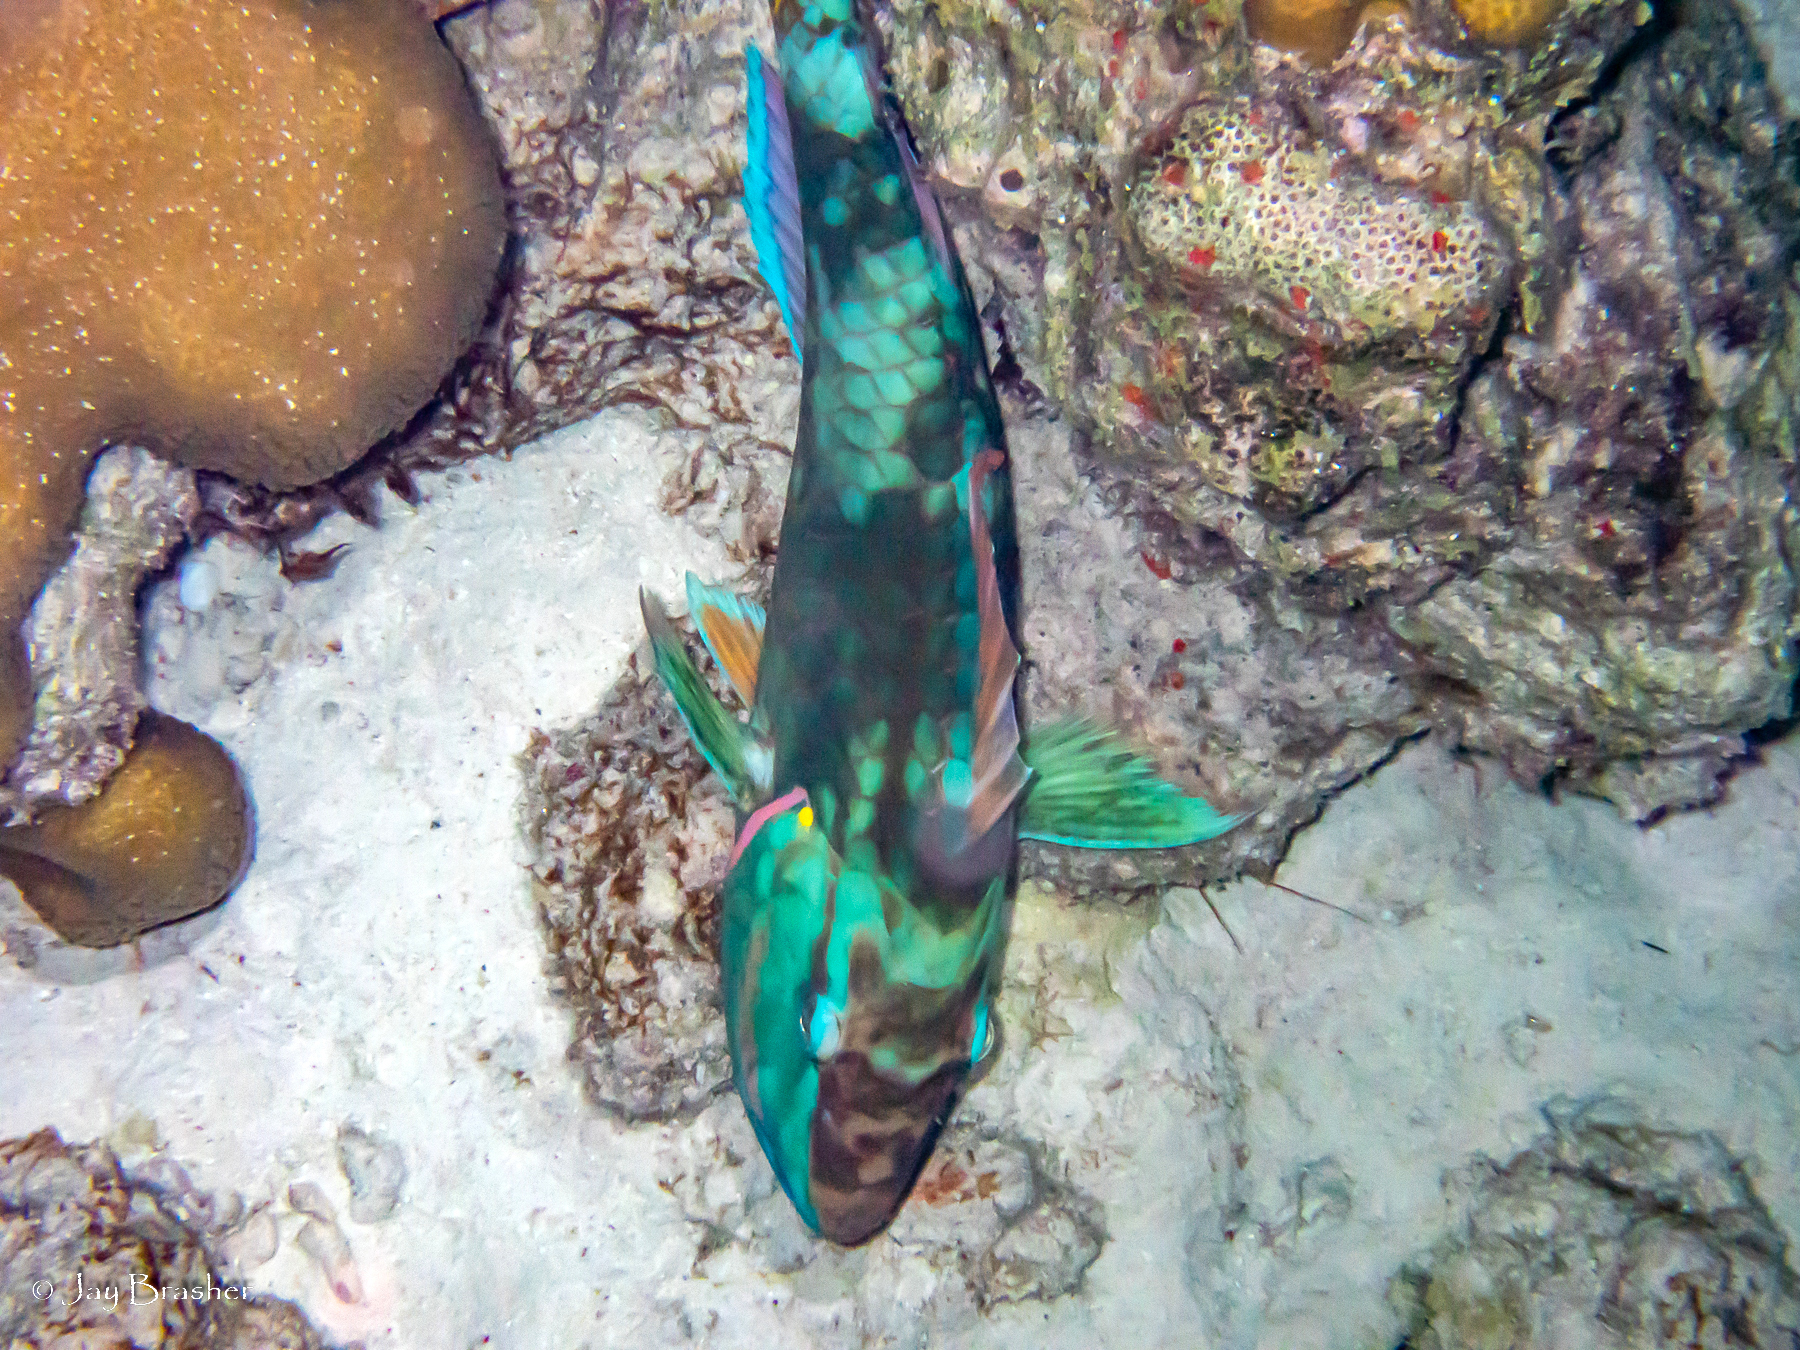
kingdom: Animalia
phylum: Chordata
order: Perciformes
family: Scaridae
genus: Sparisoma
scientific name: Sparisoma viride
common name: Stoplight parrotfish
